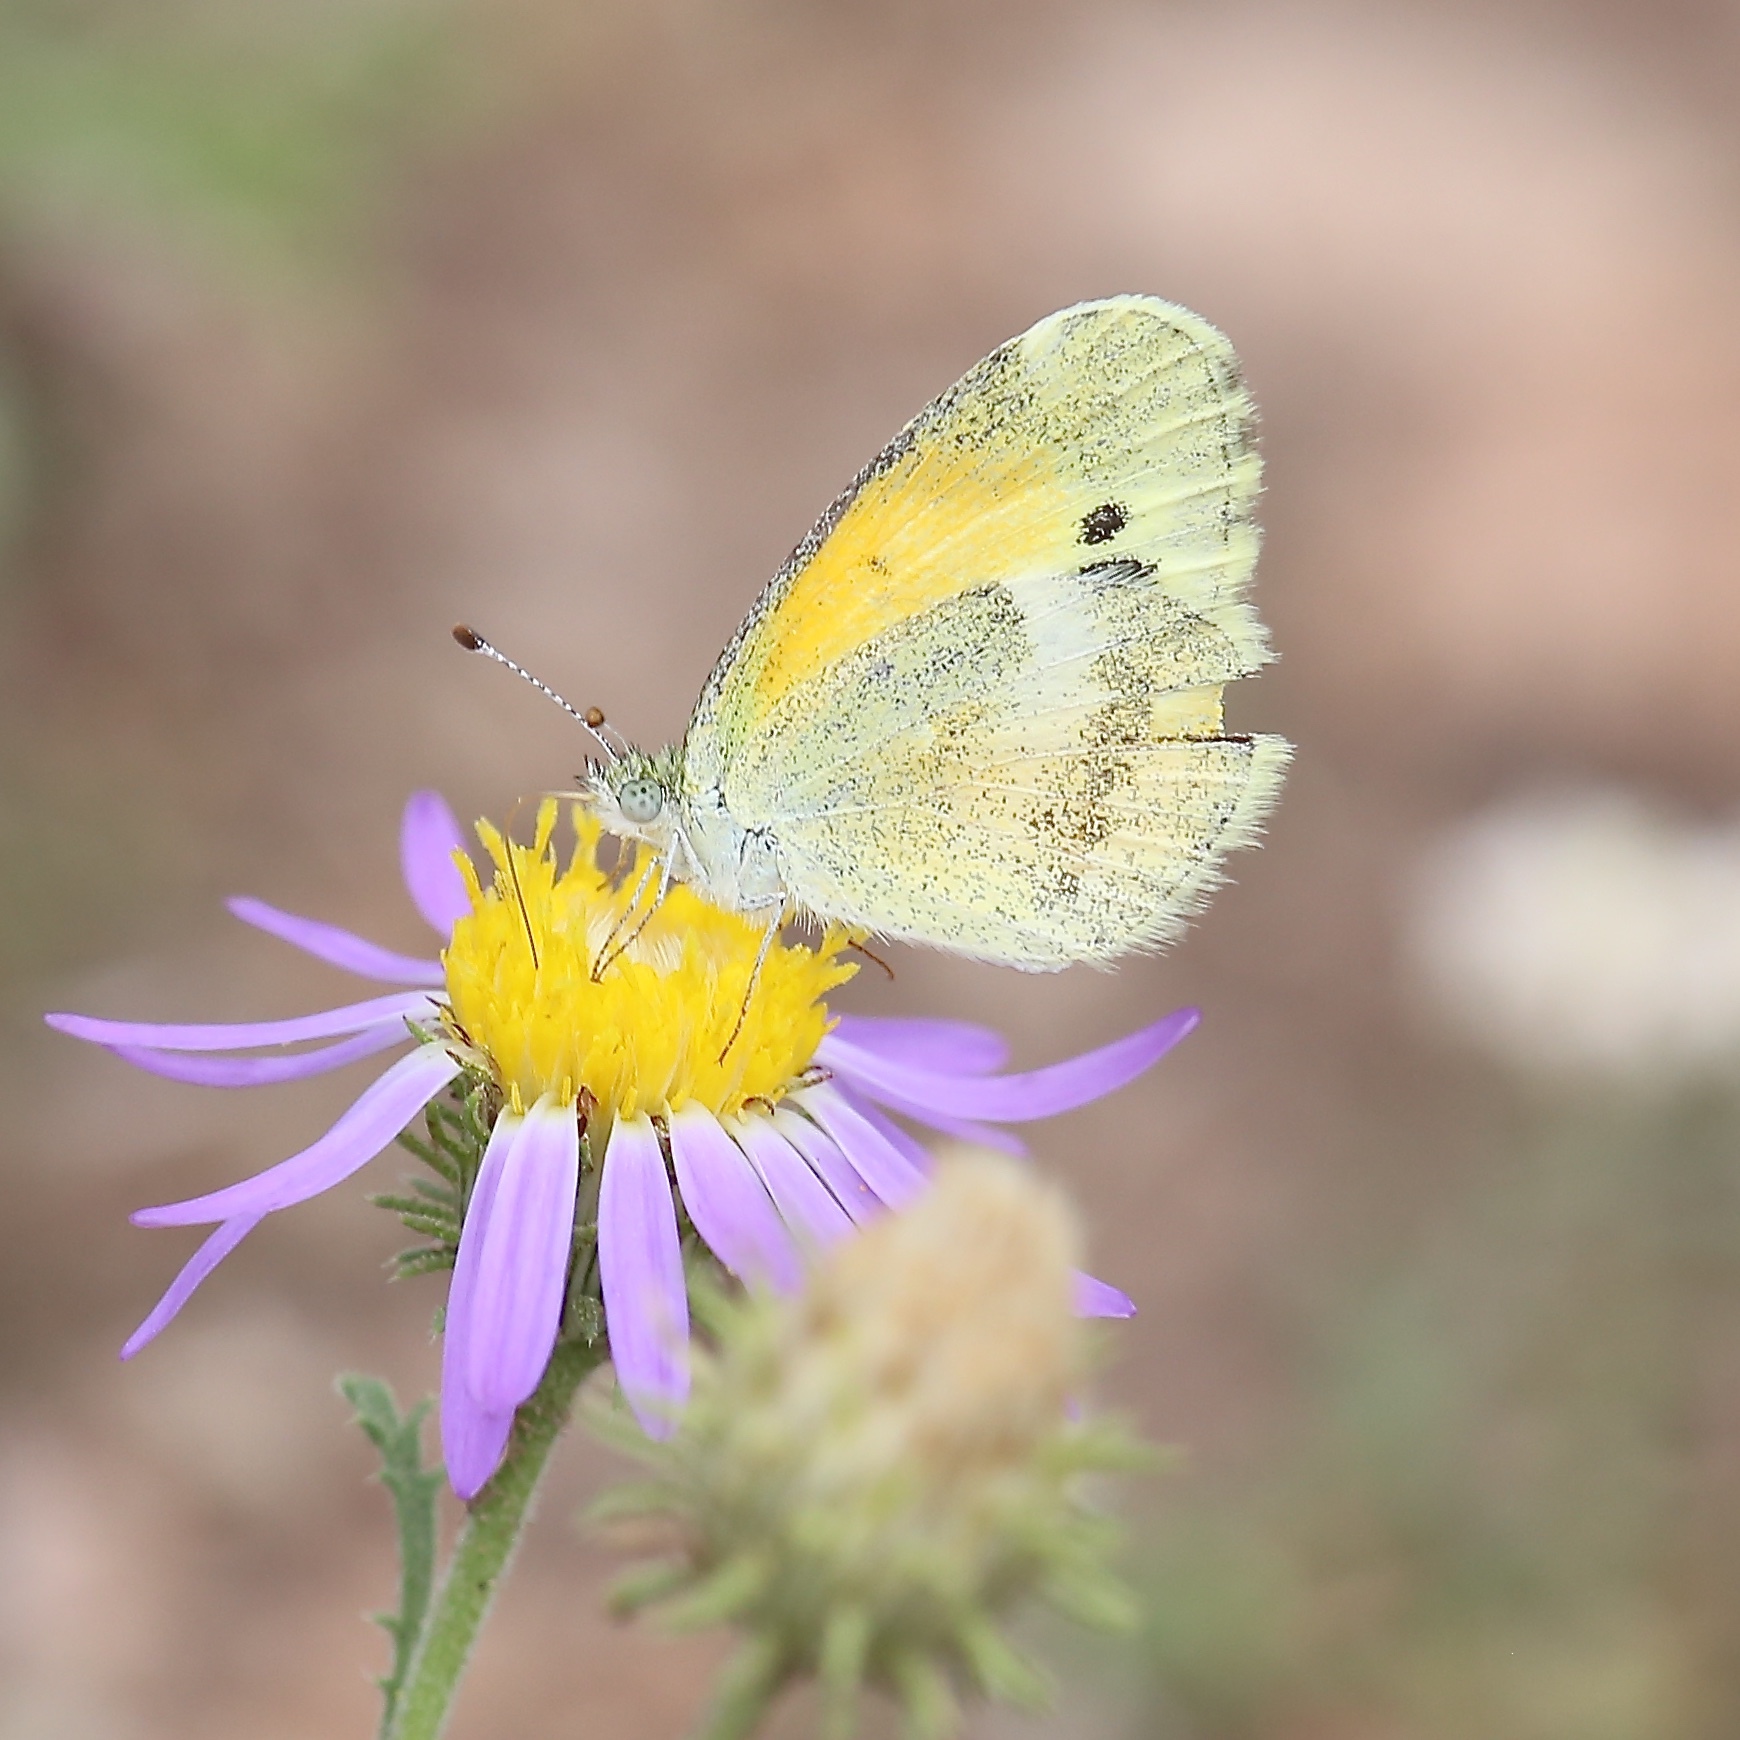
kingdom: Animalia
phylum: Arthropoda
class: Insecta
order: Lepidoptera
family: Pieridae
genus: Nathalis
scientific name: Nathalis iole
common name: Dainty sulphur
